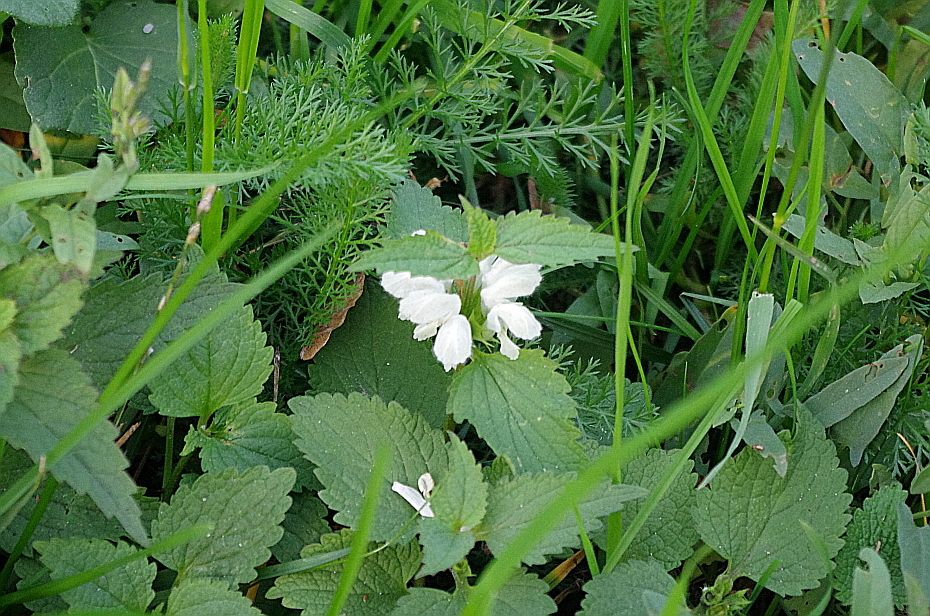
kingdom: Plantae
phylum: Tracheophyta
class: Magnoliopsida
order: Lamiales
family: Lamiaceae
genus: Lamium
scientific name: Lamium album
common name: White dead-nettle
